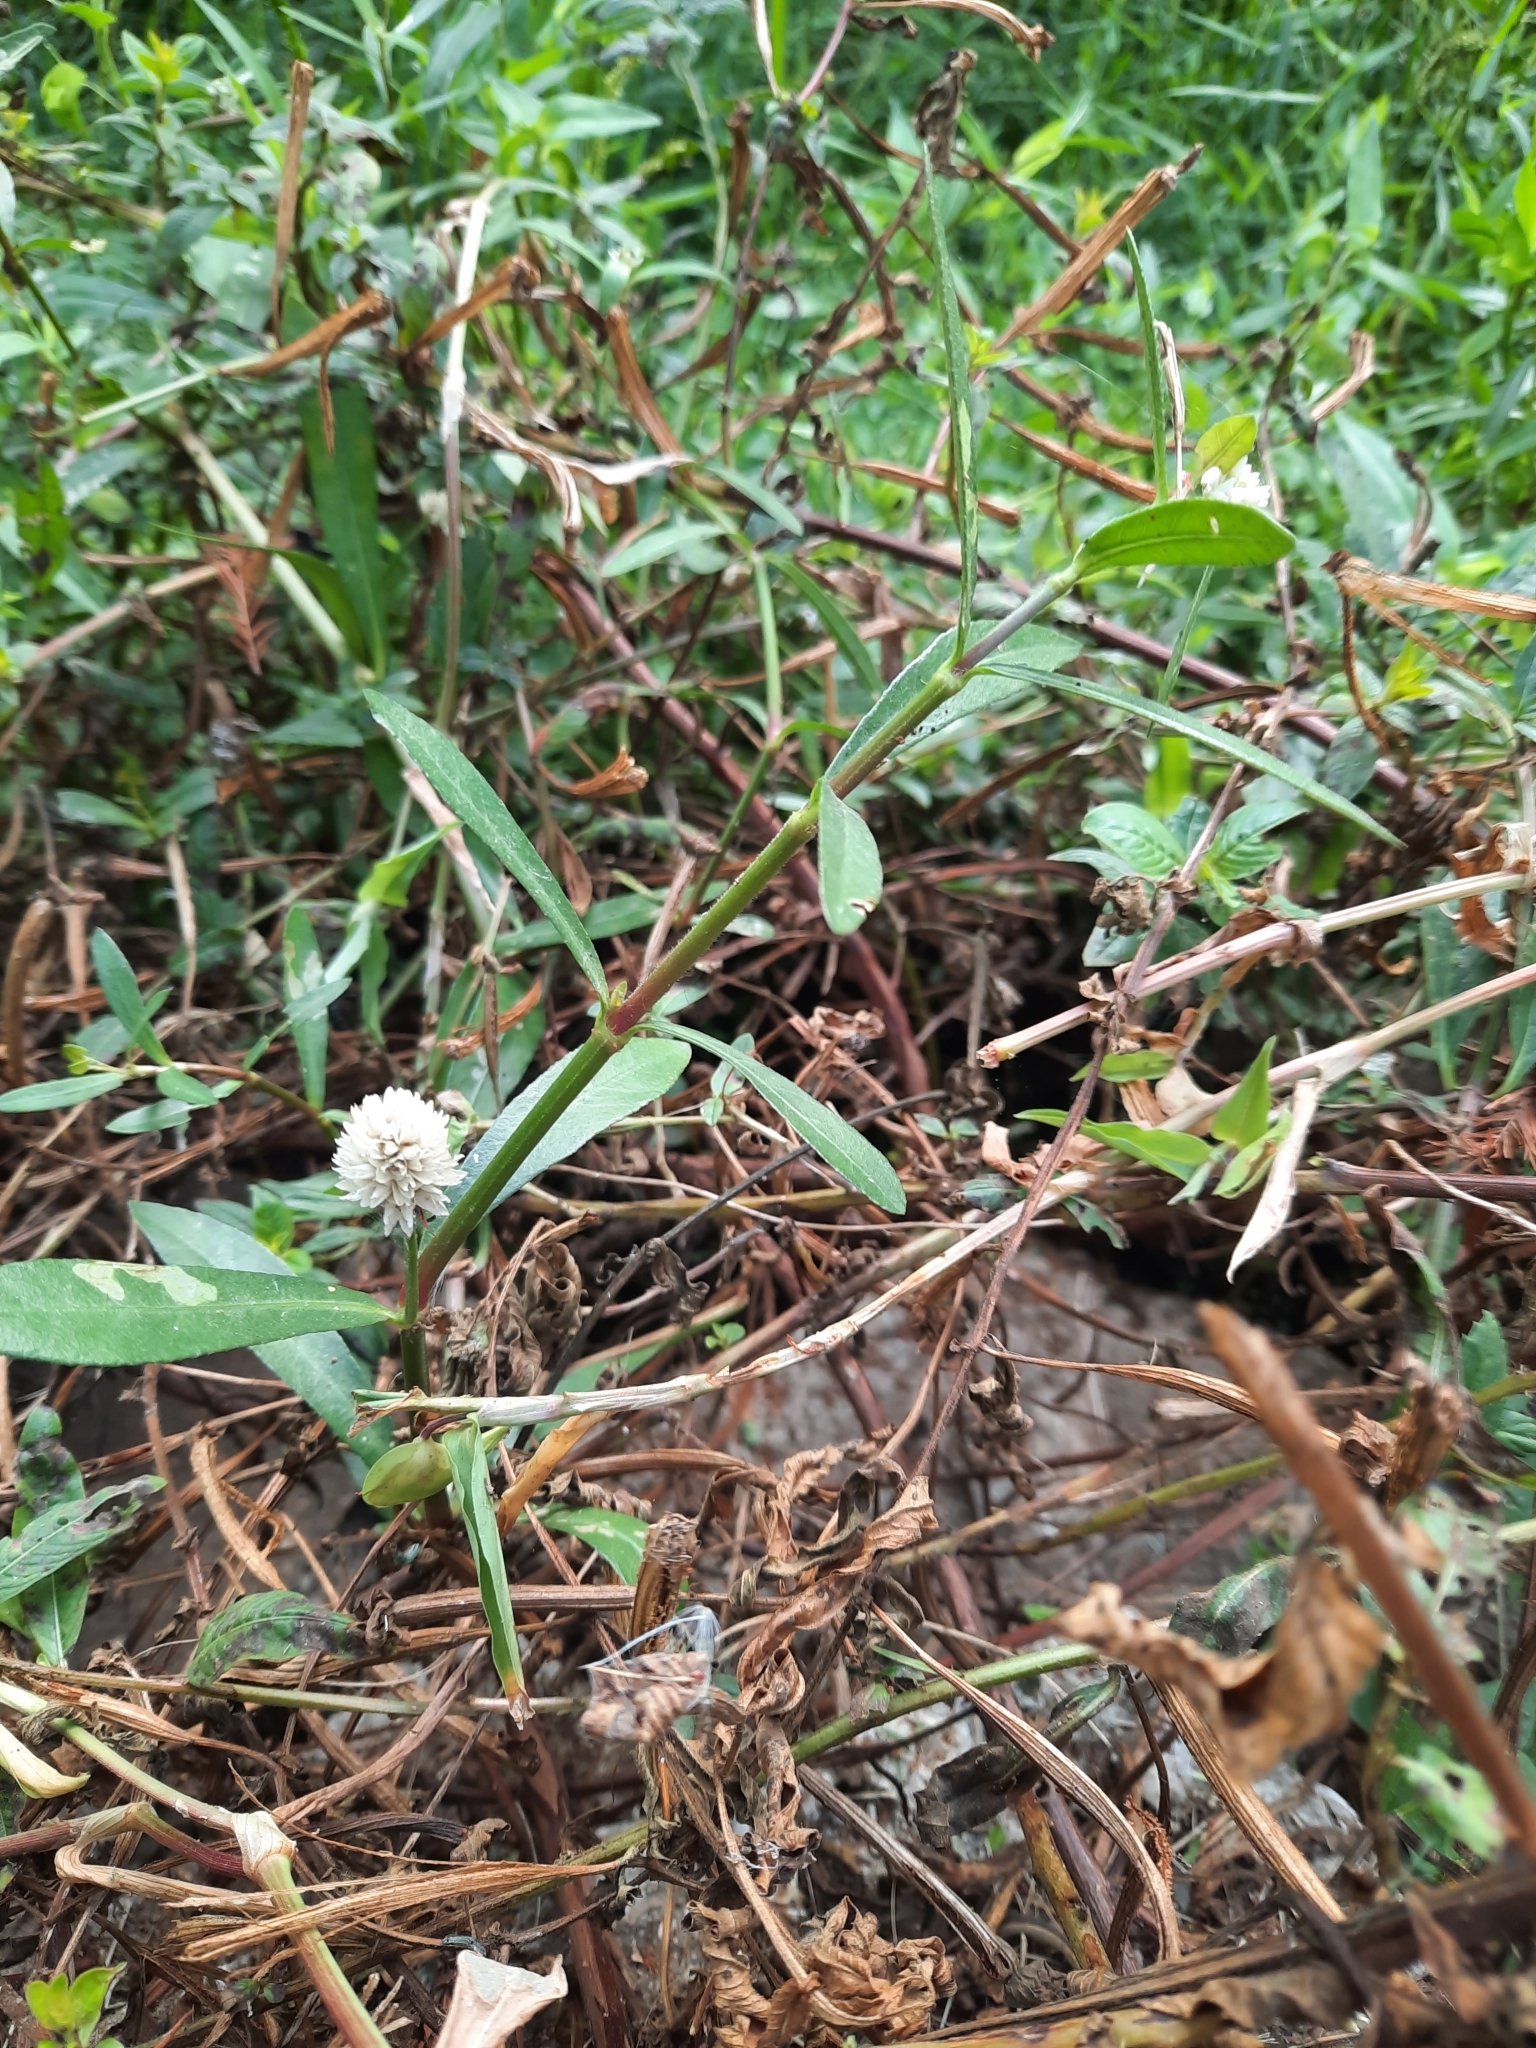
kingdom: Plantae
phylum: Tracheophyta
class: Magnoliopsida
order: Caryophyllales
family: Amaranthaceae
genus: Alternanthera
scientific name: Alternanthera philoxeroides
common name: Alligatorweed
